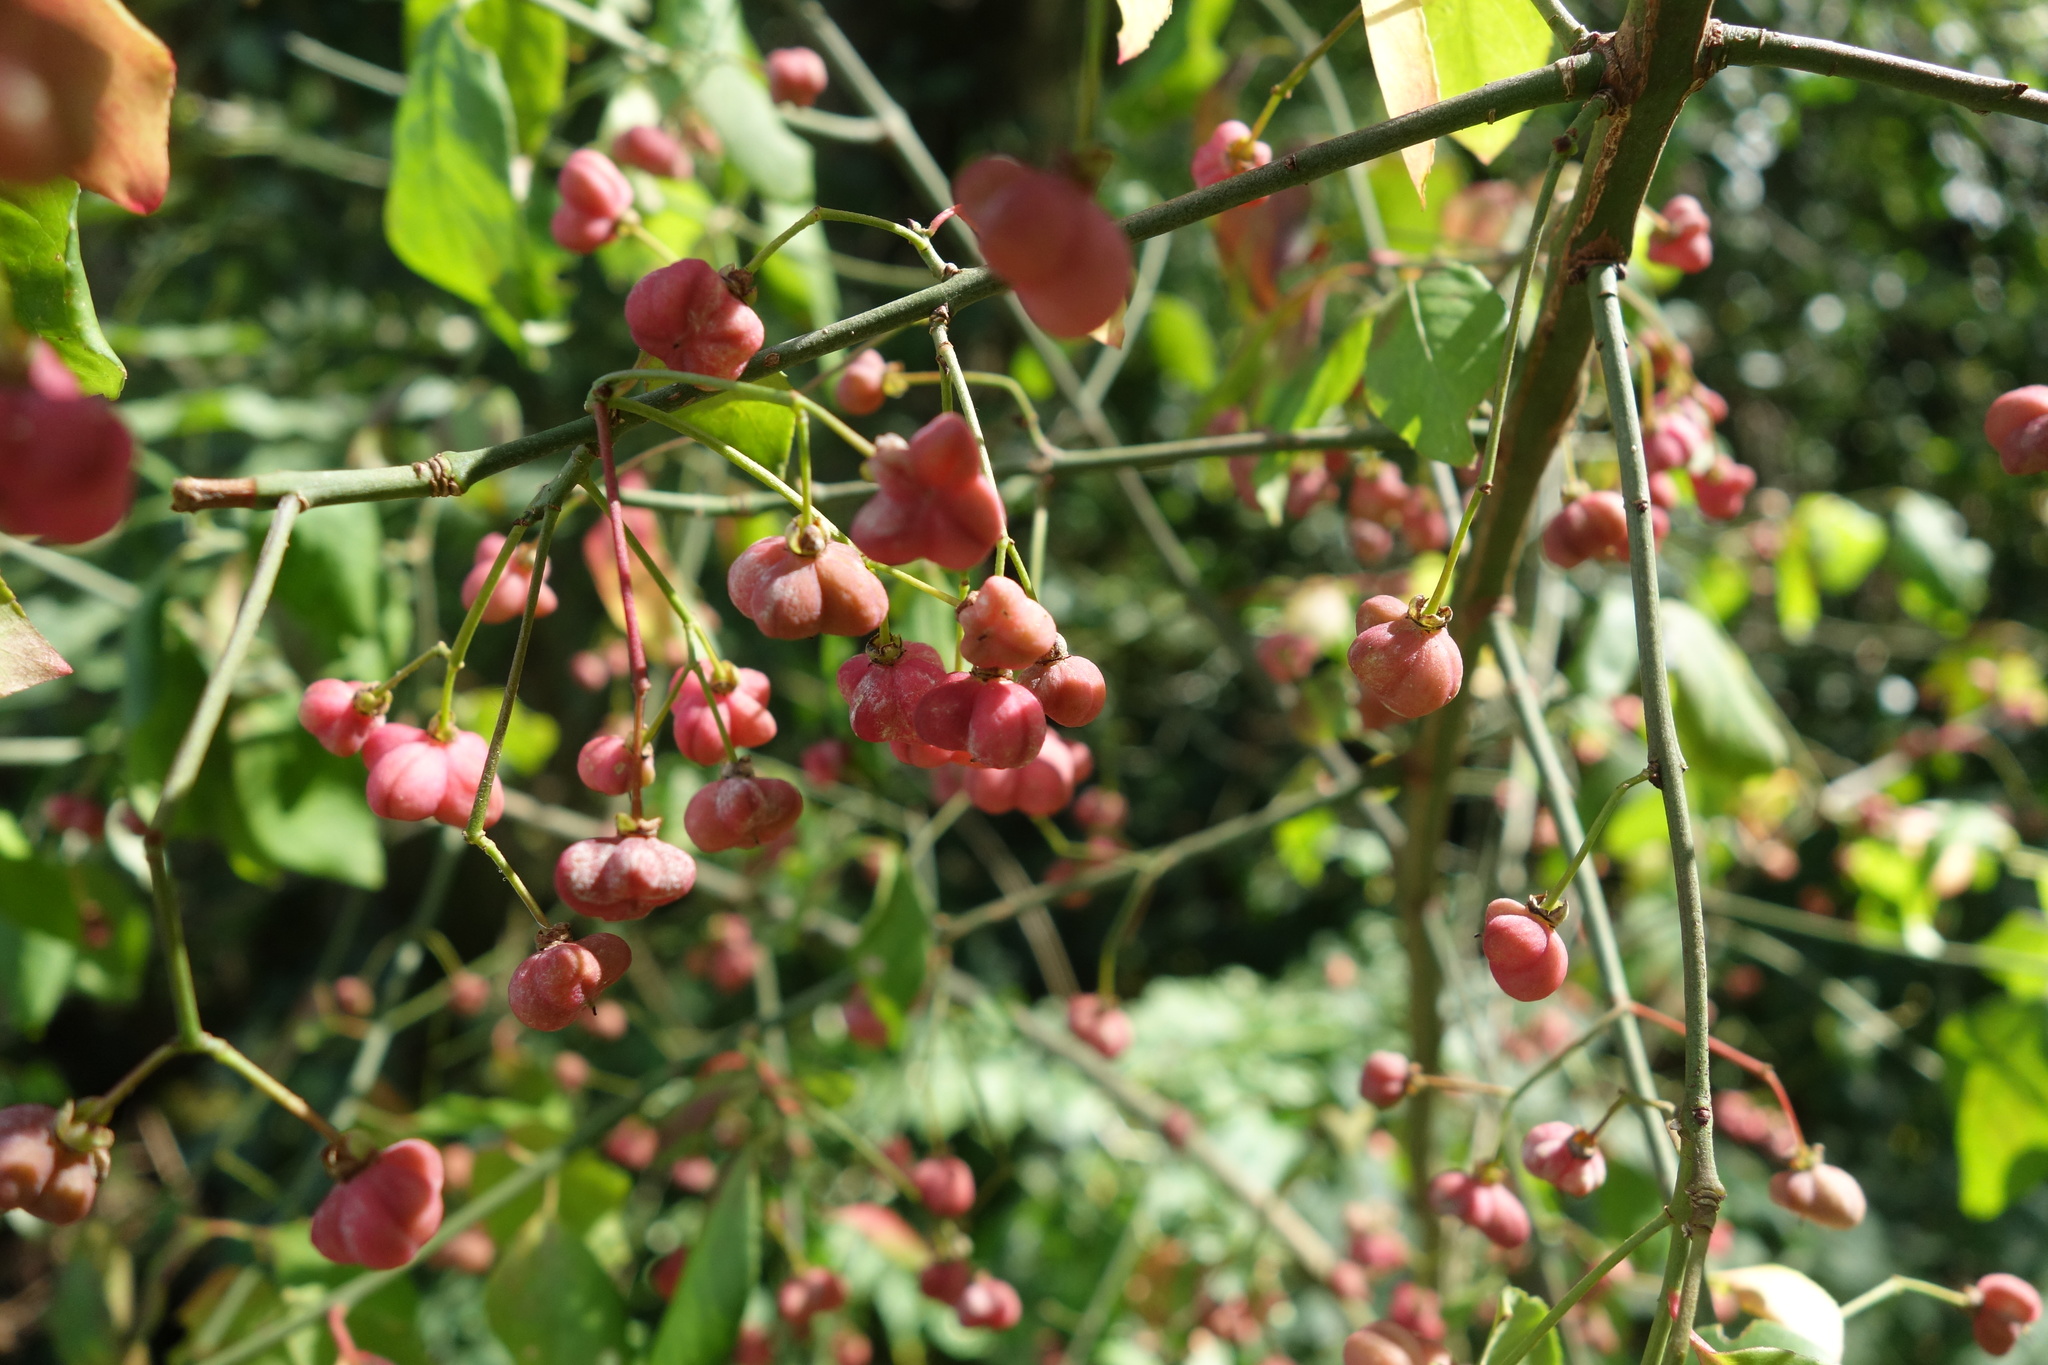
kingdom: Plantae
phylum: Tracheophyta
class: Magnoliopsida
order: Celastrales
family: Celastraceae
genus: Euonymus
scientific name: Euonymus europaeus
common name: Spindle
